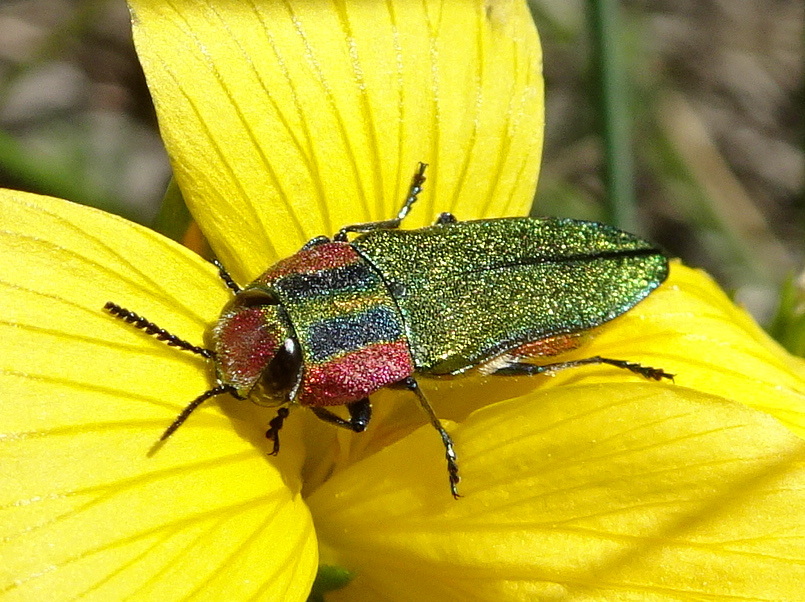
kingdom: Animalia
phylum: Arthropoda
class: Insecta
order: Coleoptera
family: Buprestidae
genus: Anthaxia
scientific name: Anthaxia hungarica
